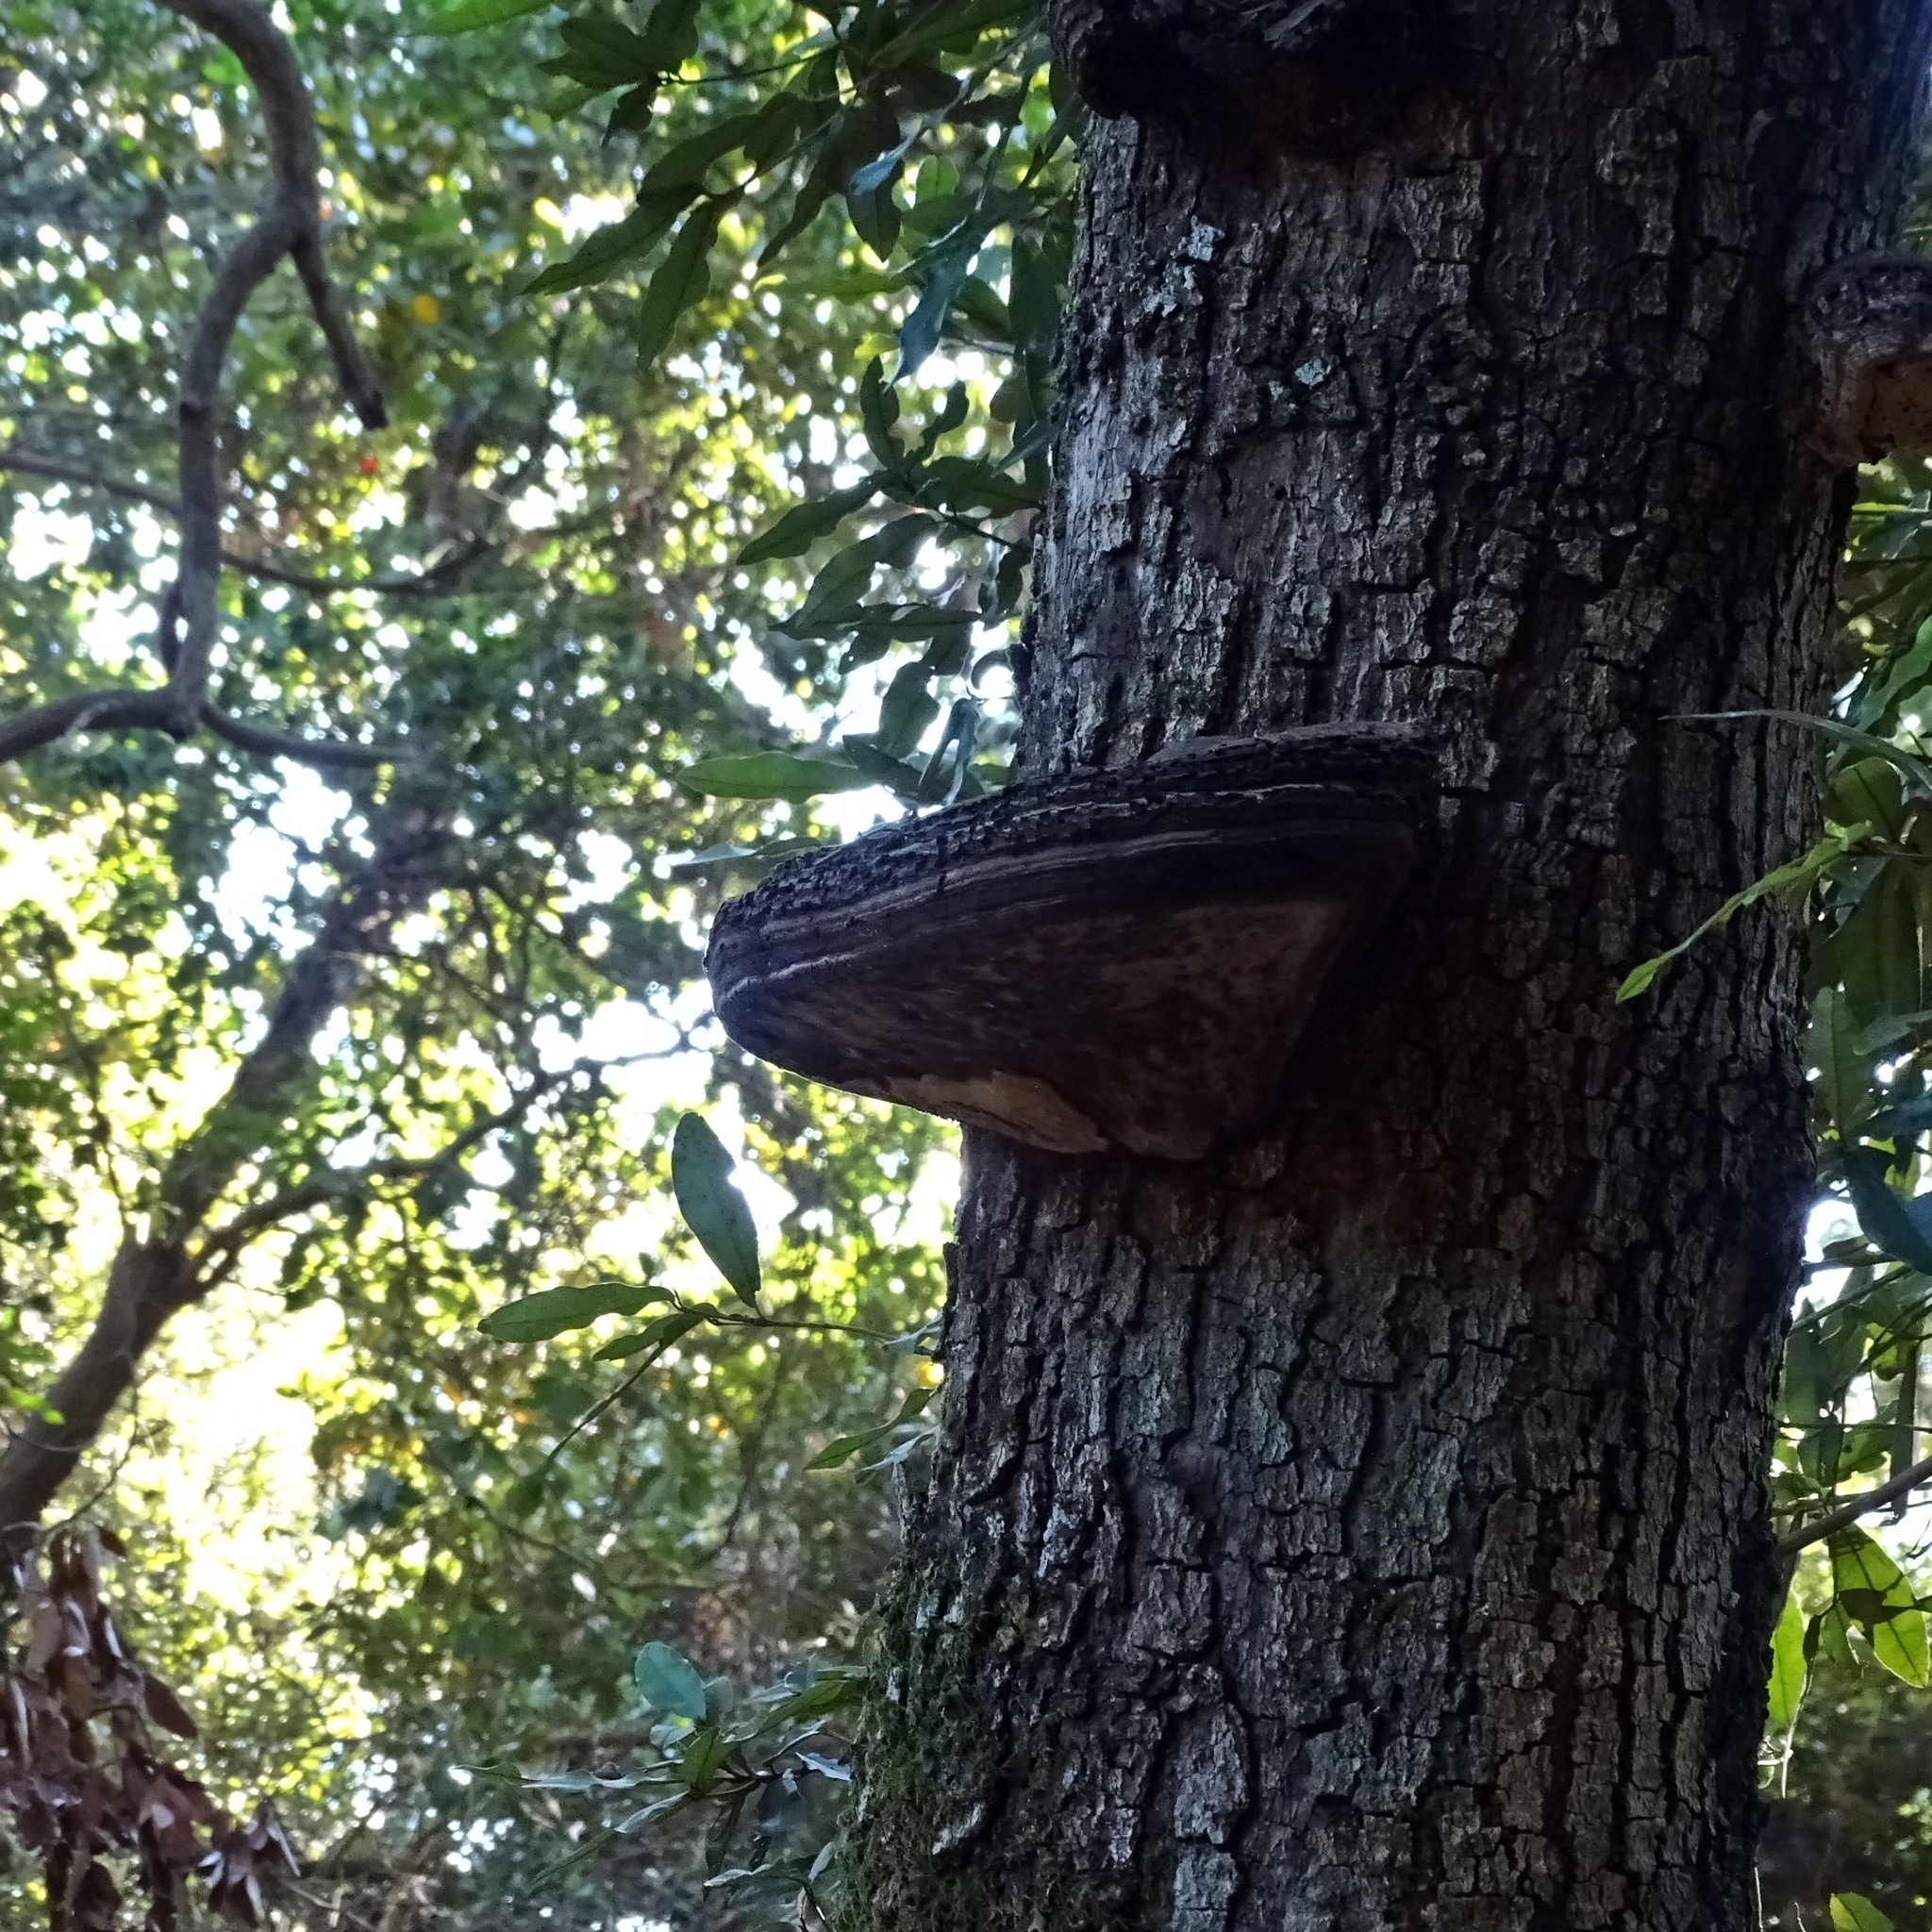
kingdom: Fungi
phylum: Basidiomycota
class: Agaricomycetes
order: Polyporales
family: Polyporaceae
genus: Ganoderma
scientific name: Ganoderma australe
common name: Southern bracket
